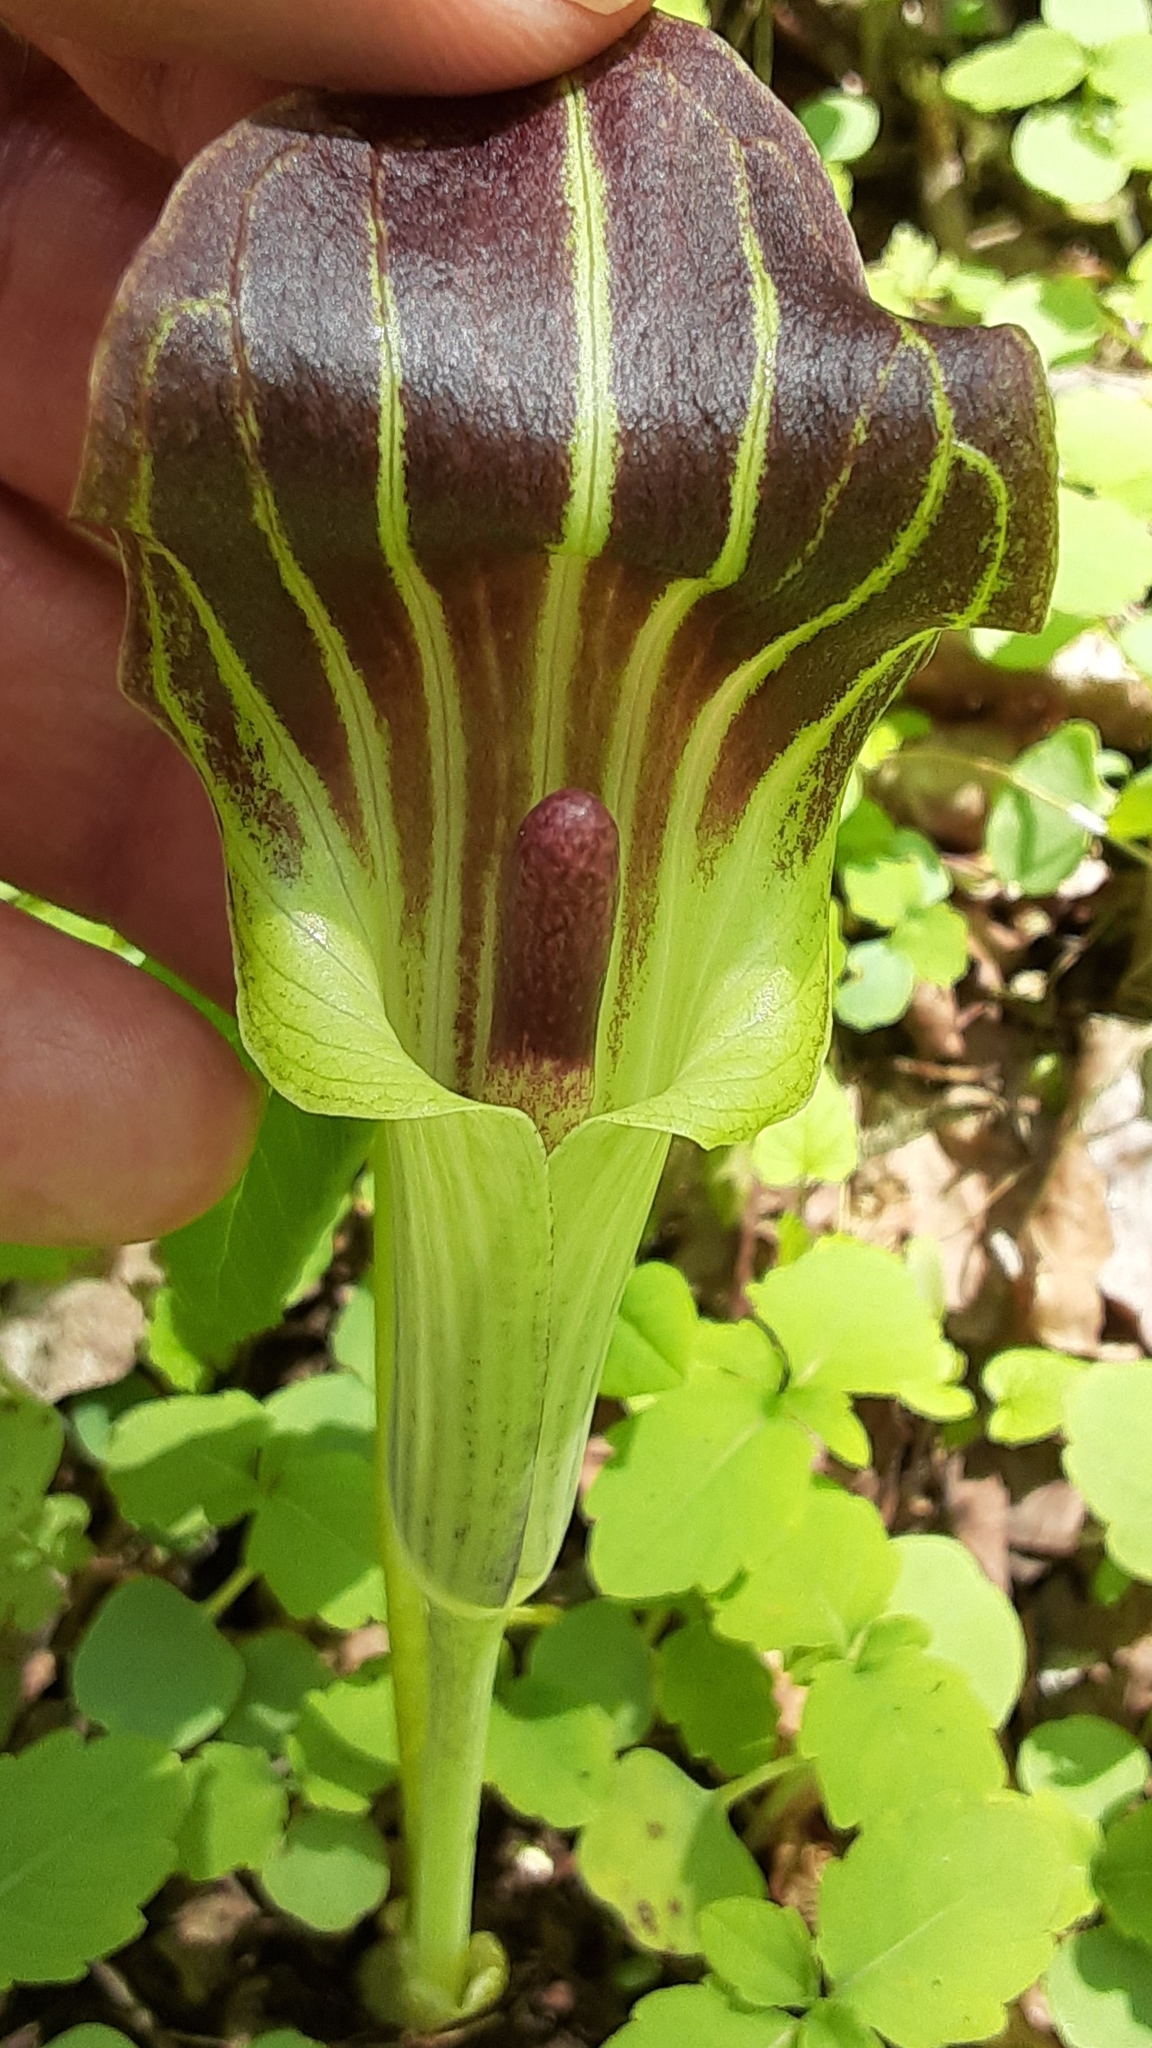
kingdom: Plantae
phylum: Tracheophyta
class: Liliopsida
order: Alismatales
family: Araceae
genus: Arisaema
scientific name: Arisaema triphyllum
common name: Jack-in-the-pulpit
